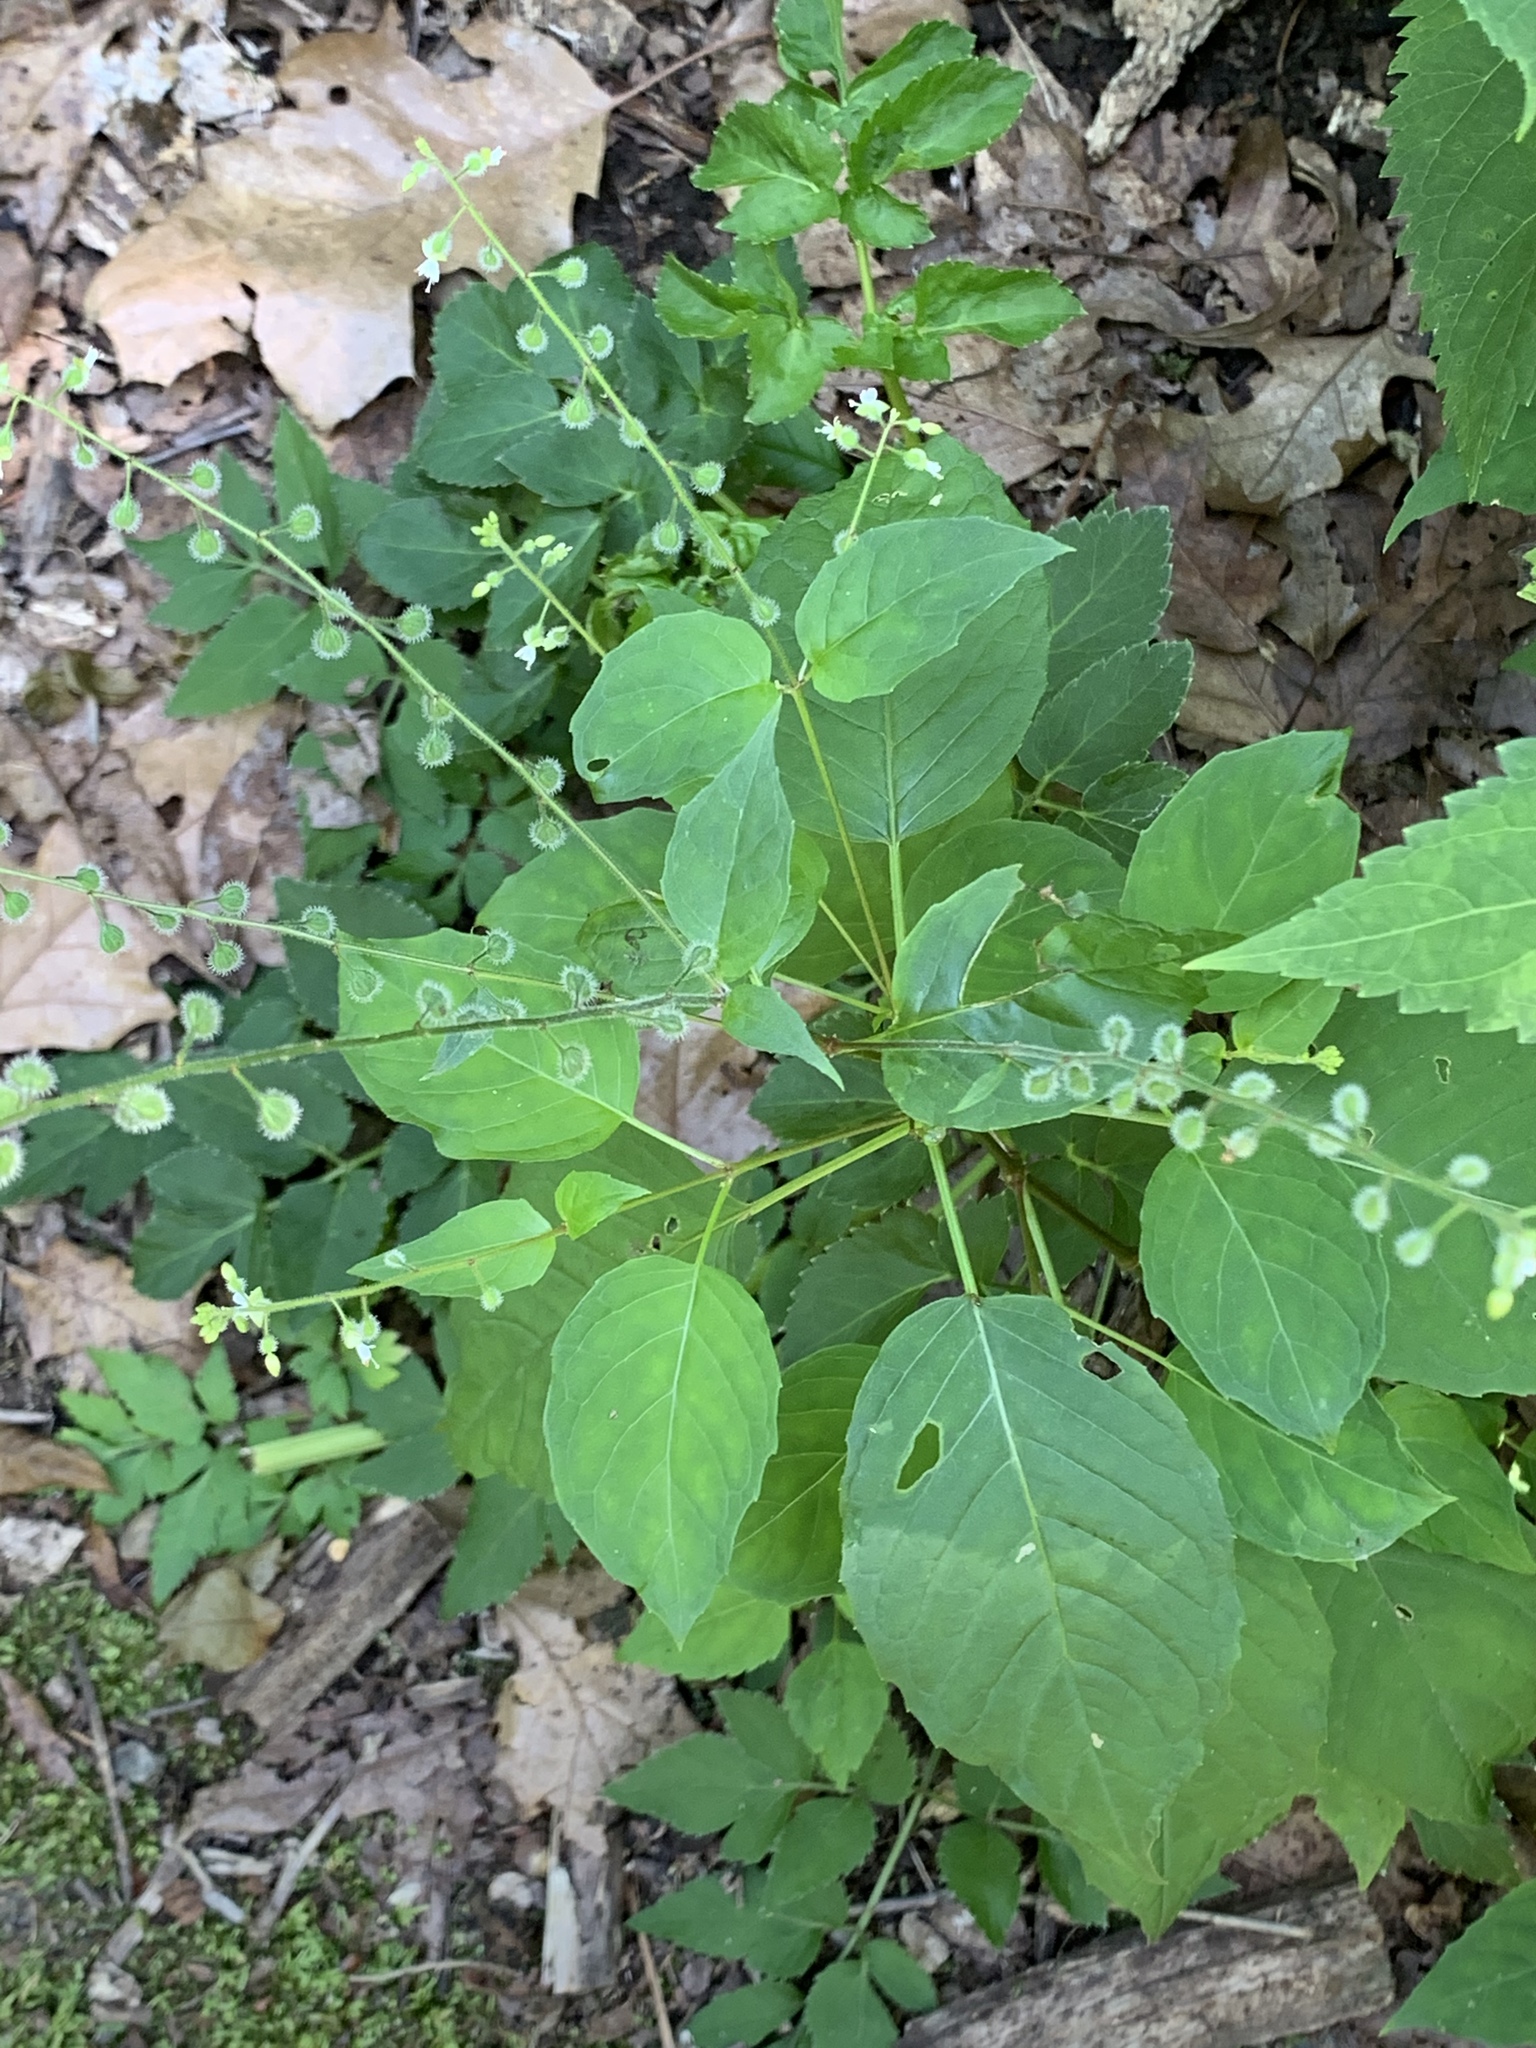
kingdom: Plantae
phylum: Tracheophyta
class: Magnoliopsida
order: Myrtales
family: Onagraceae
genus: Circaea
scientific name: Circaea canadensis
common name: Broad-leaved enchanter's nightshade
